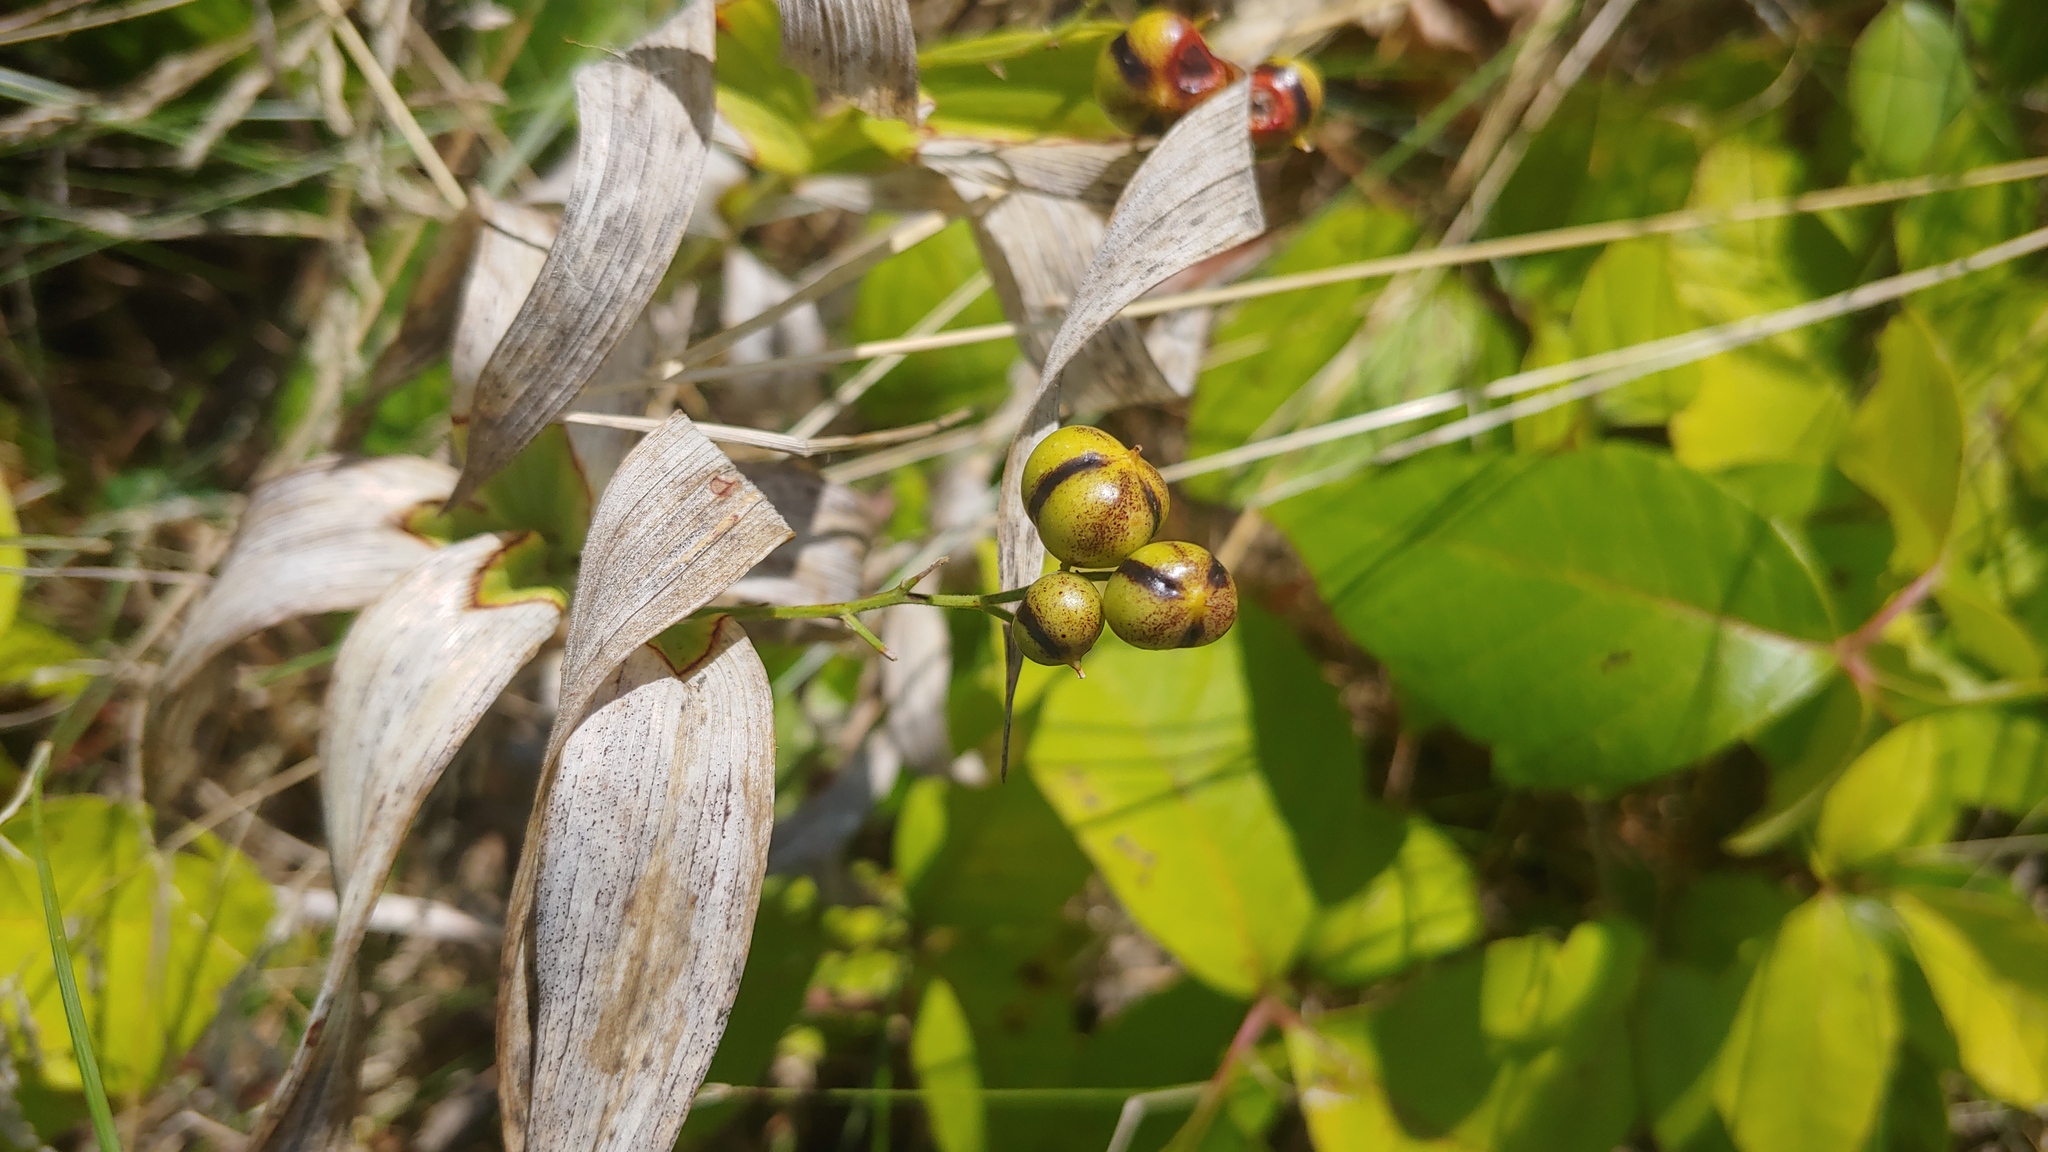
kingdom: Plantae
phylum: Tracheophyta
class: Liliopsida
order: Asparagales
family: Asparagaceae
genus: Maianthemum
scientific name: Maianthemum stellatum
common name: Little false solomon's seal
